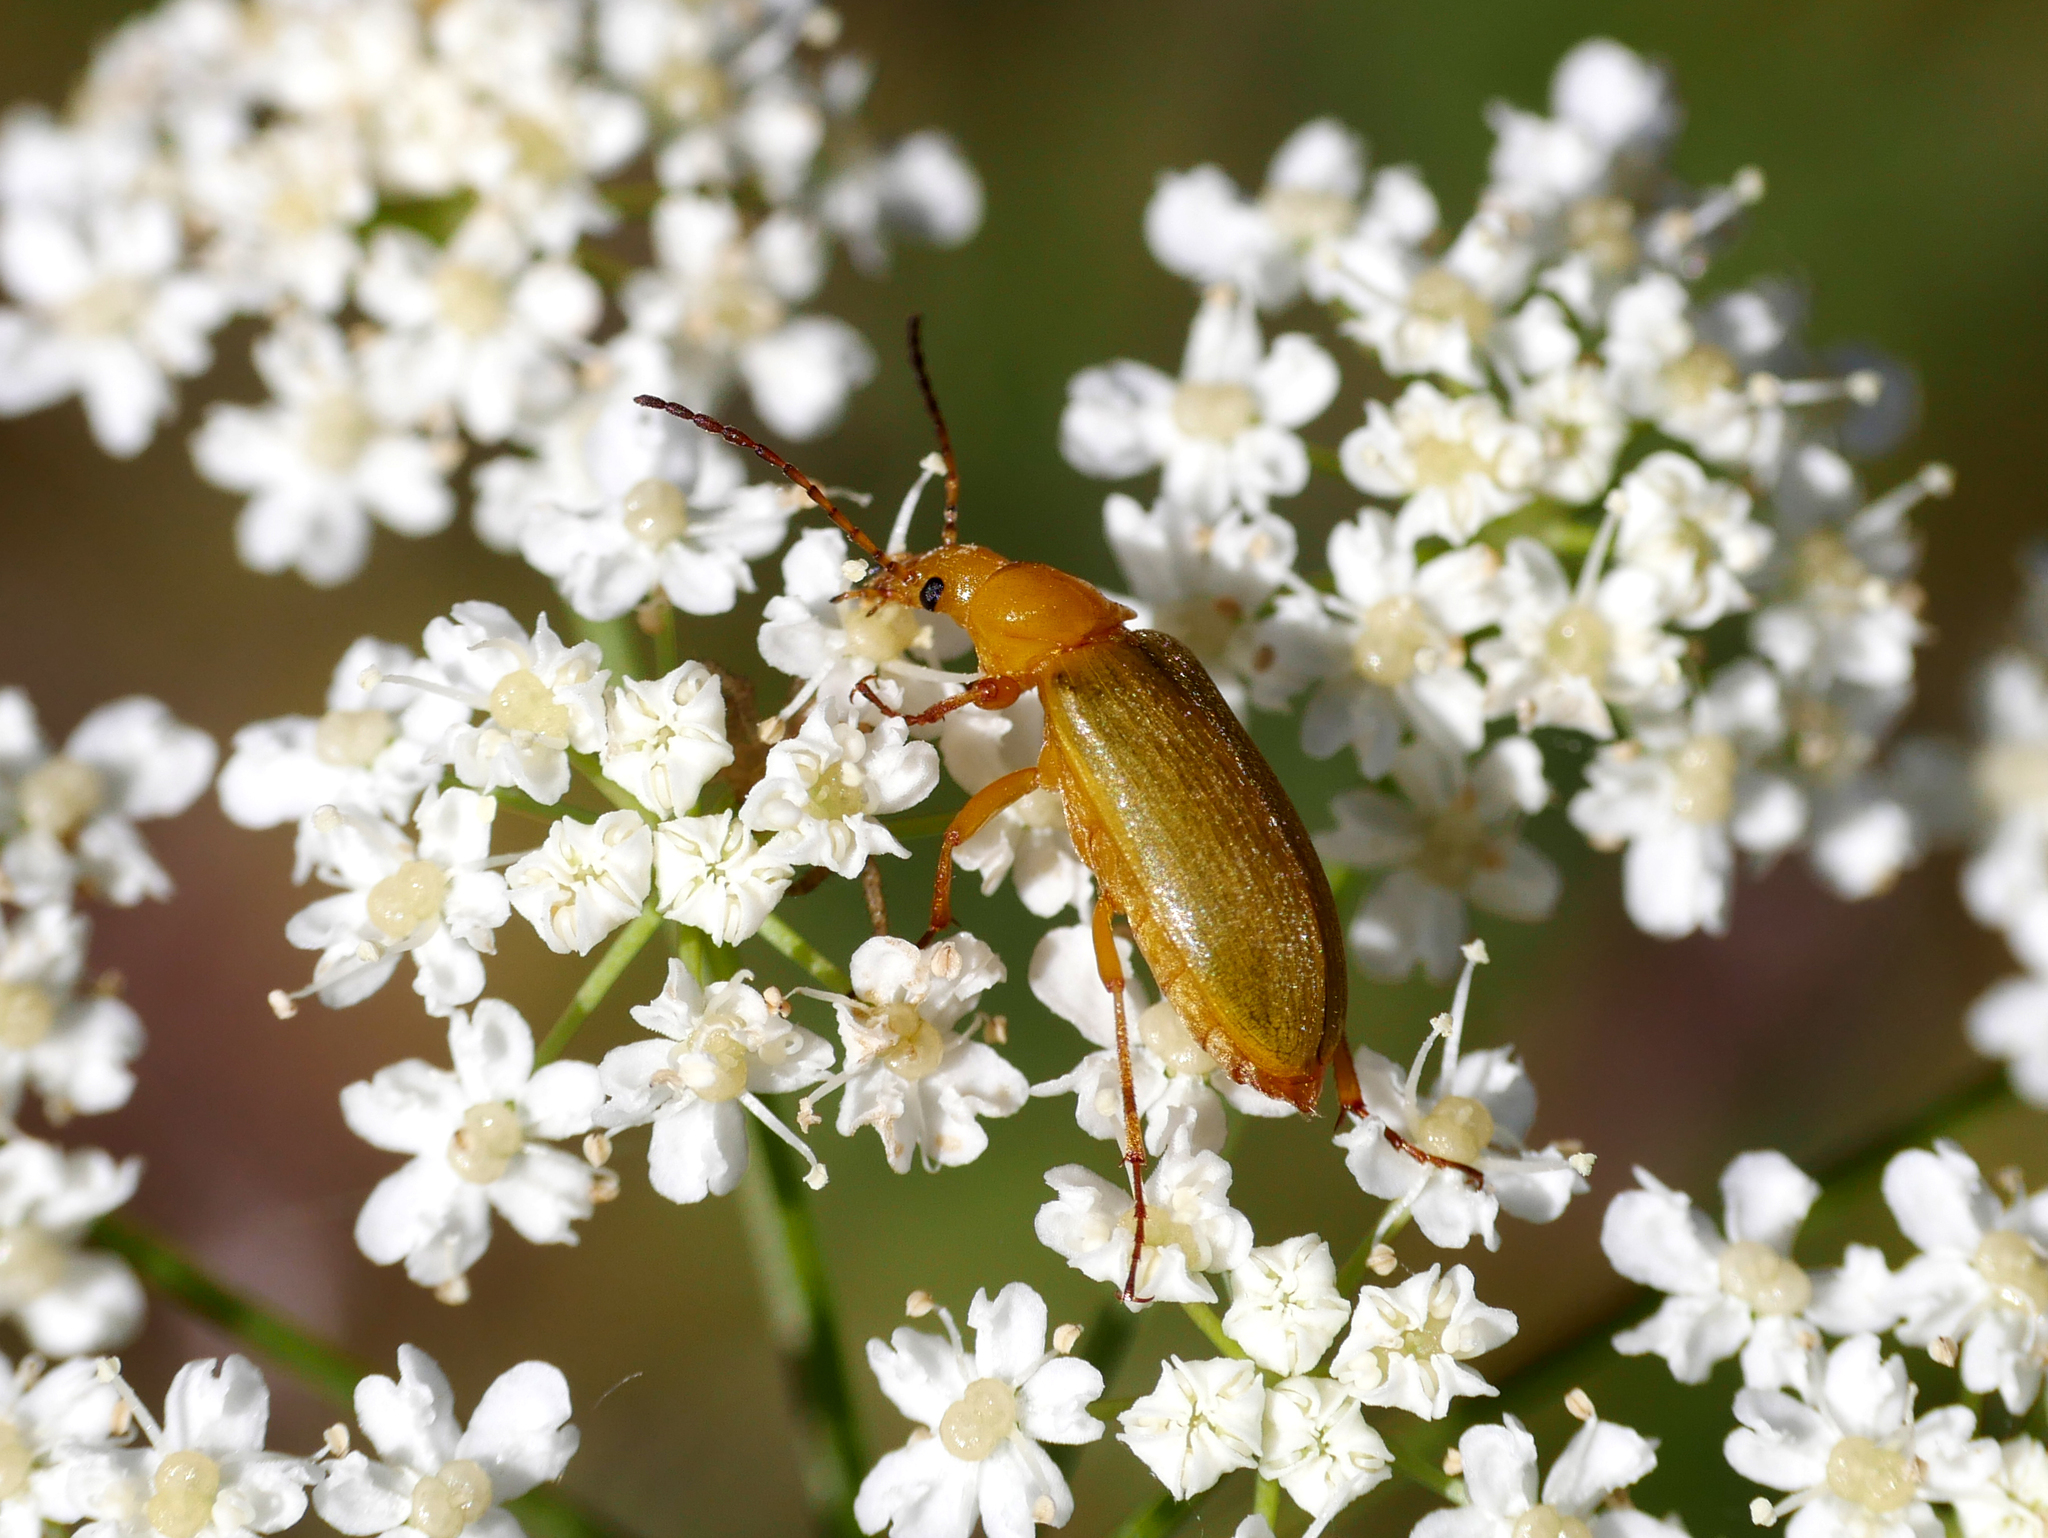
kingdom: Animalia
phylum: Arthropoda
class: Insecta
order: Coleoptera
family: Tenebrionidae
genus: Cteniopus
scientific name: Cteniopus sulphureus
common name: Sulphur beetle
